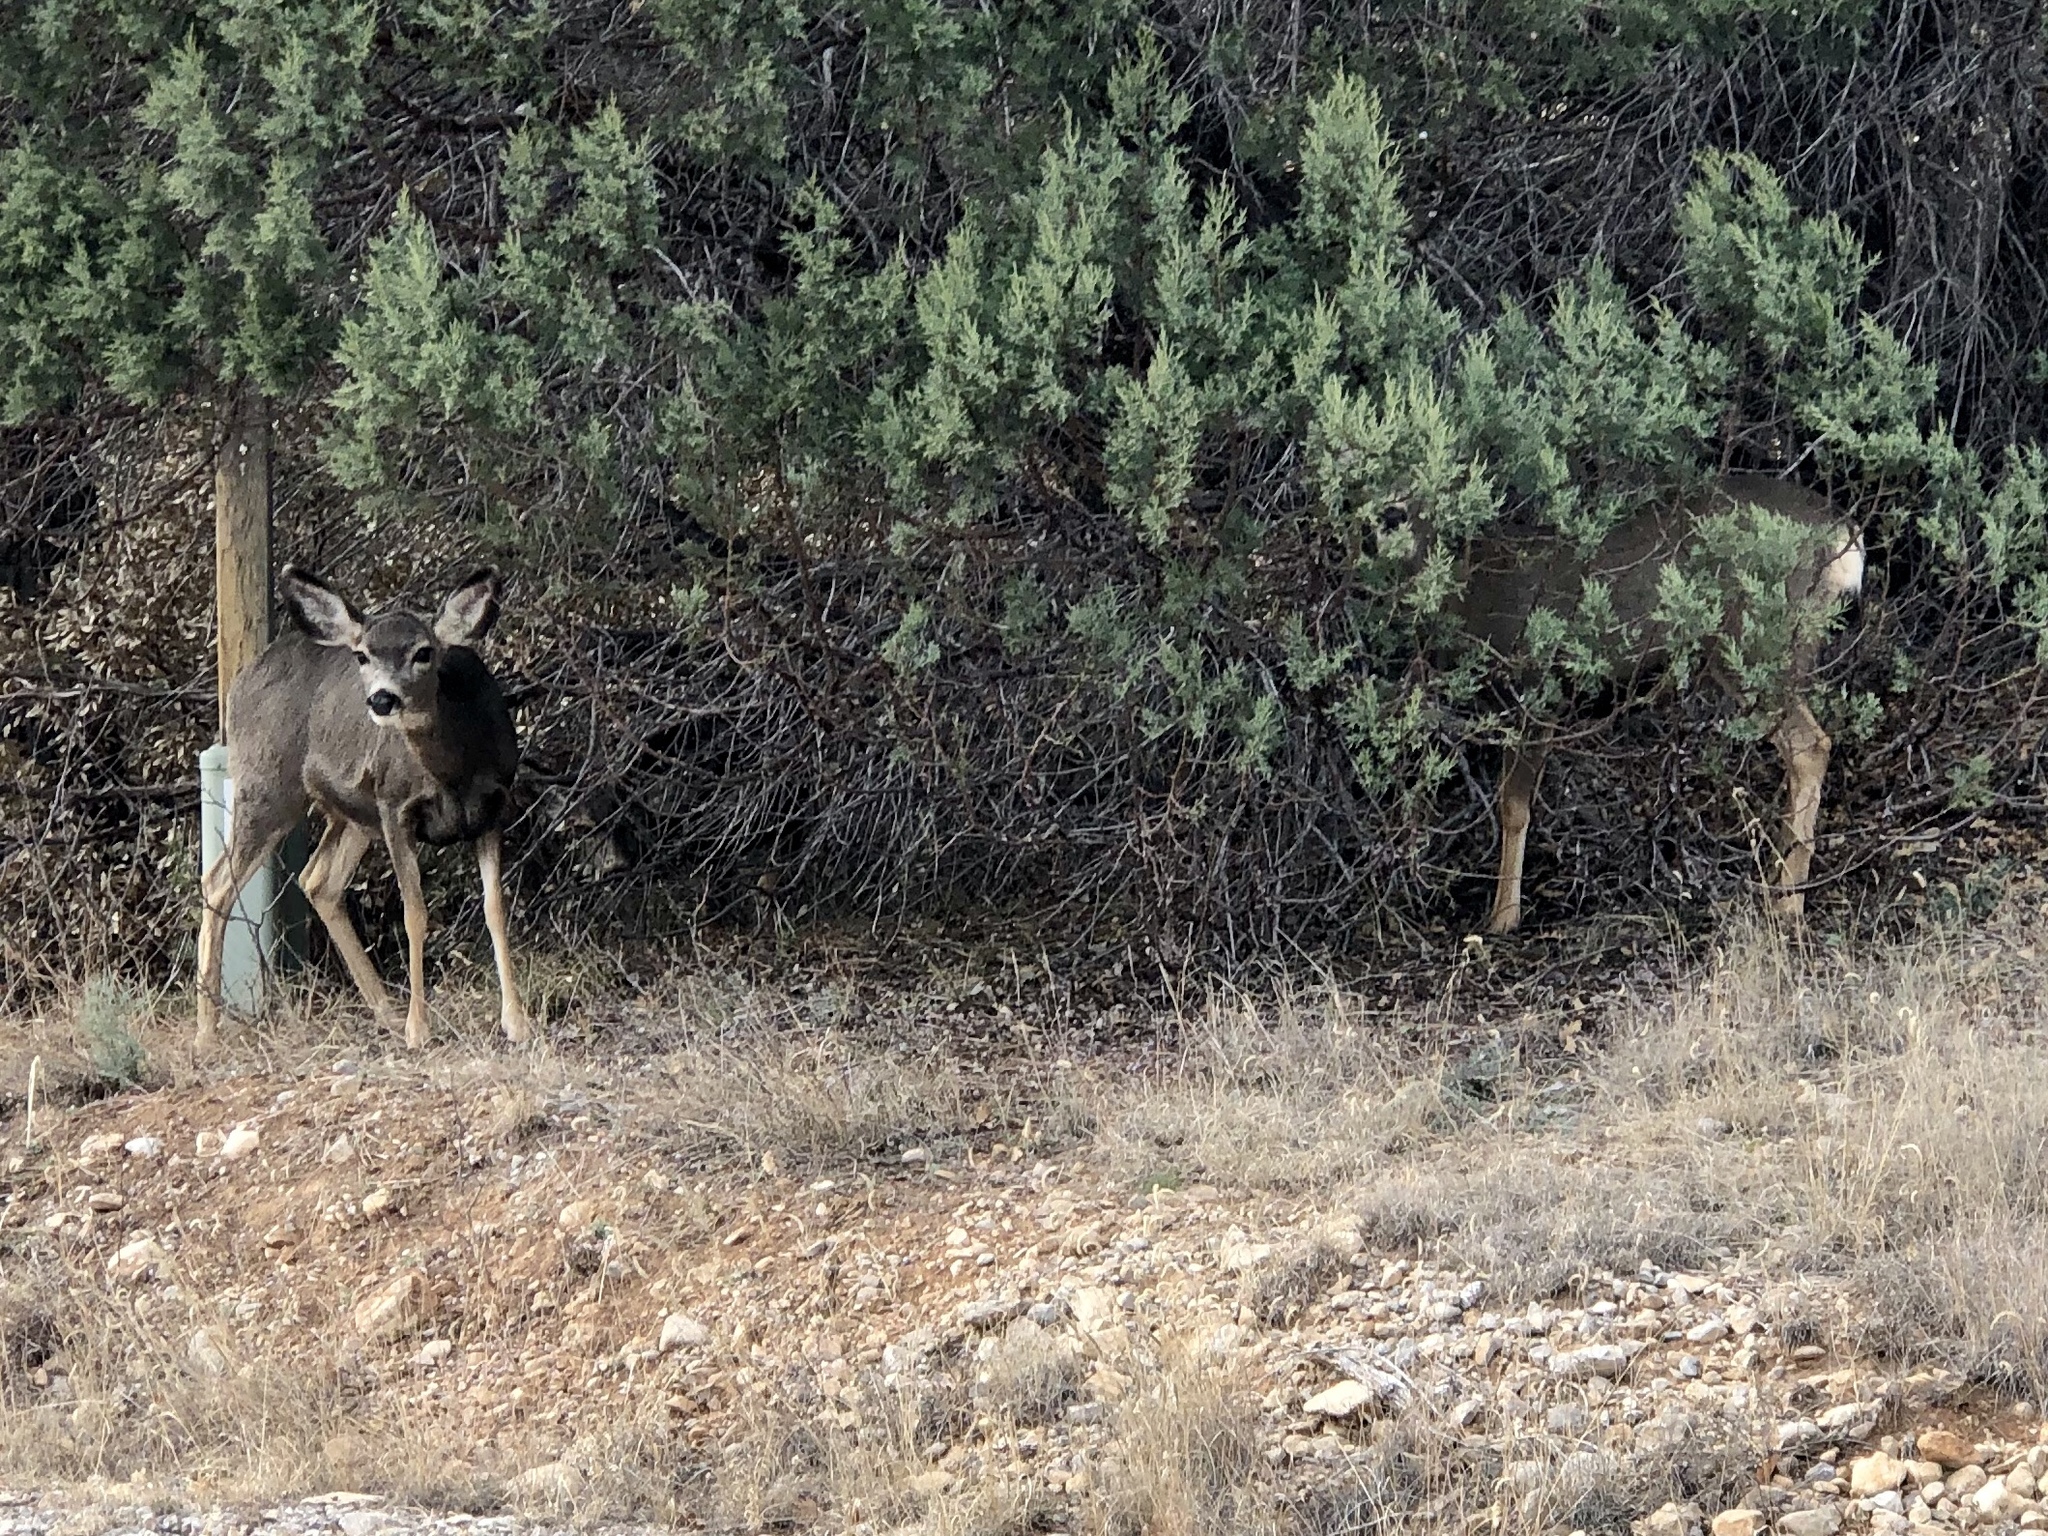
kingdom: Animalia
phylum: Chordata
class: Mammalia
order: Artiodactyla
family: Cervidae
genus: Odocoileus
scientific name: Odocoileus hemionus
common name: Mule deer
